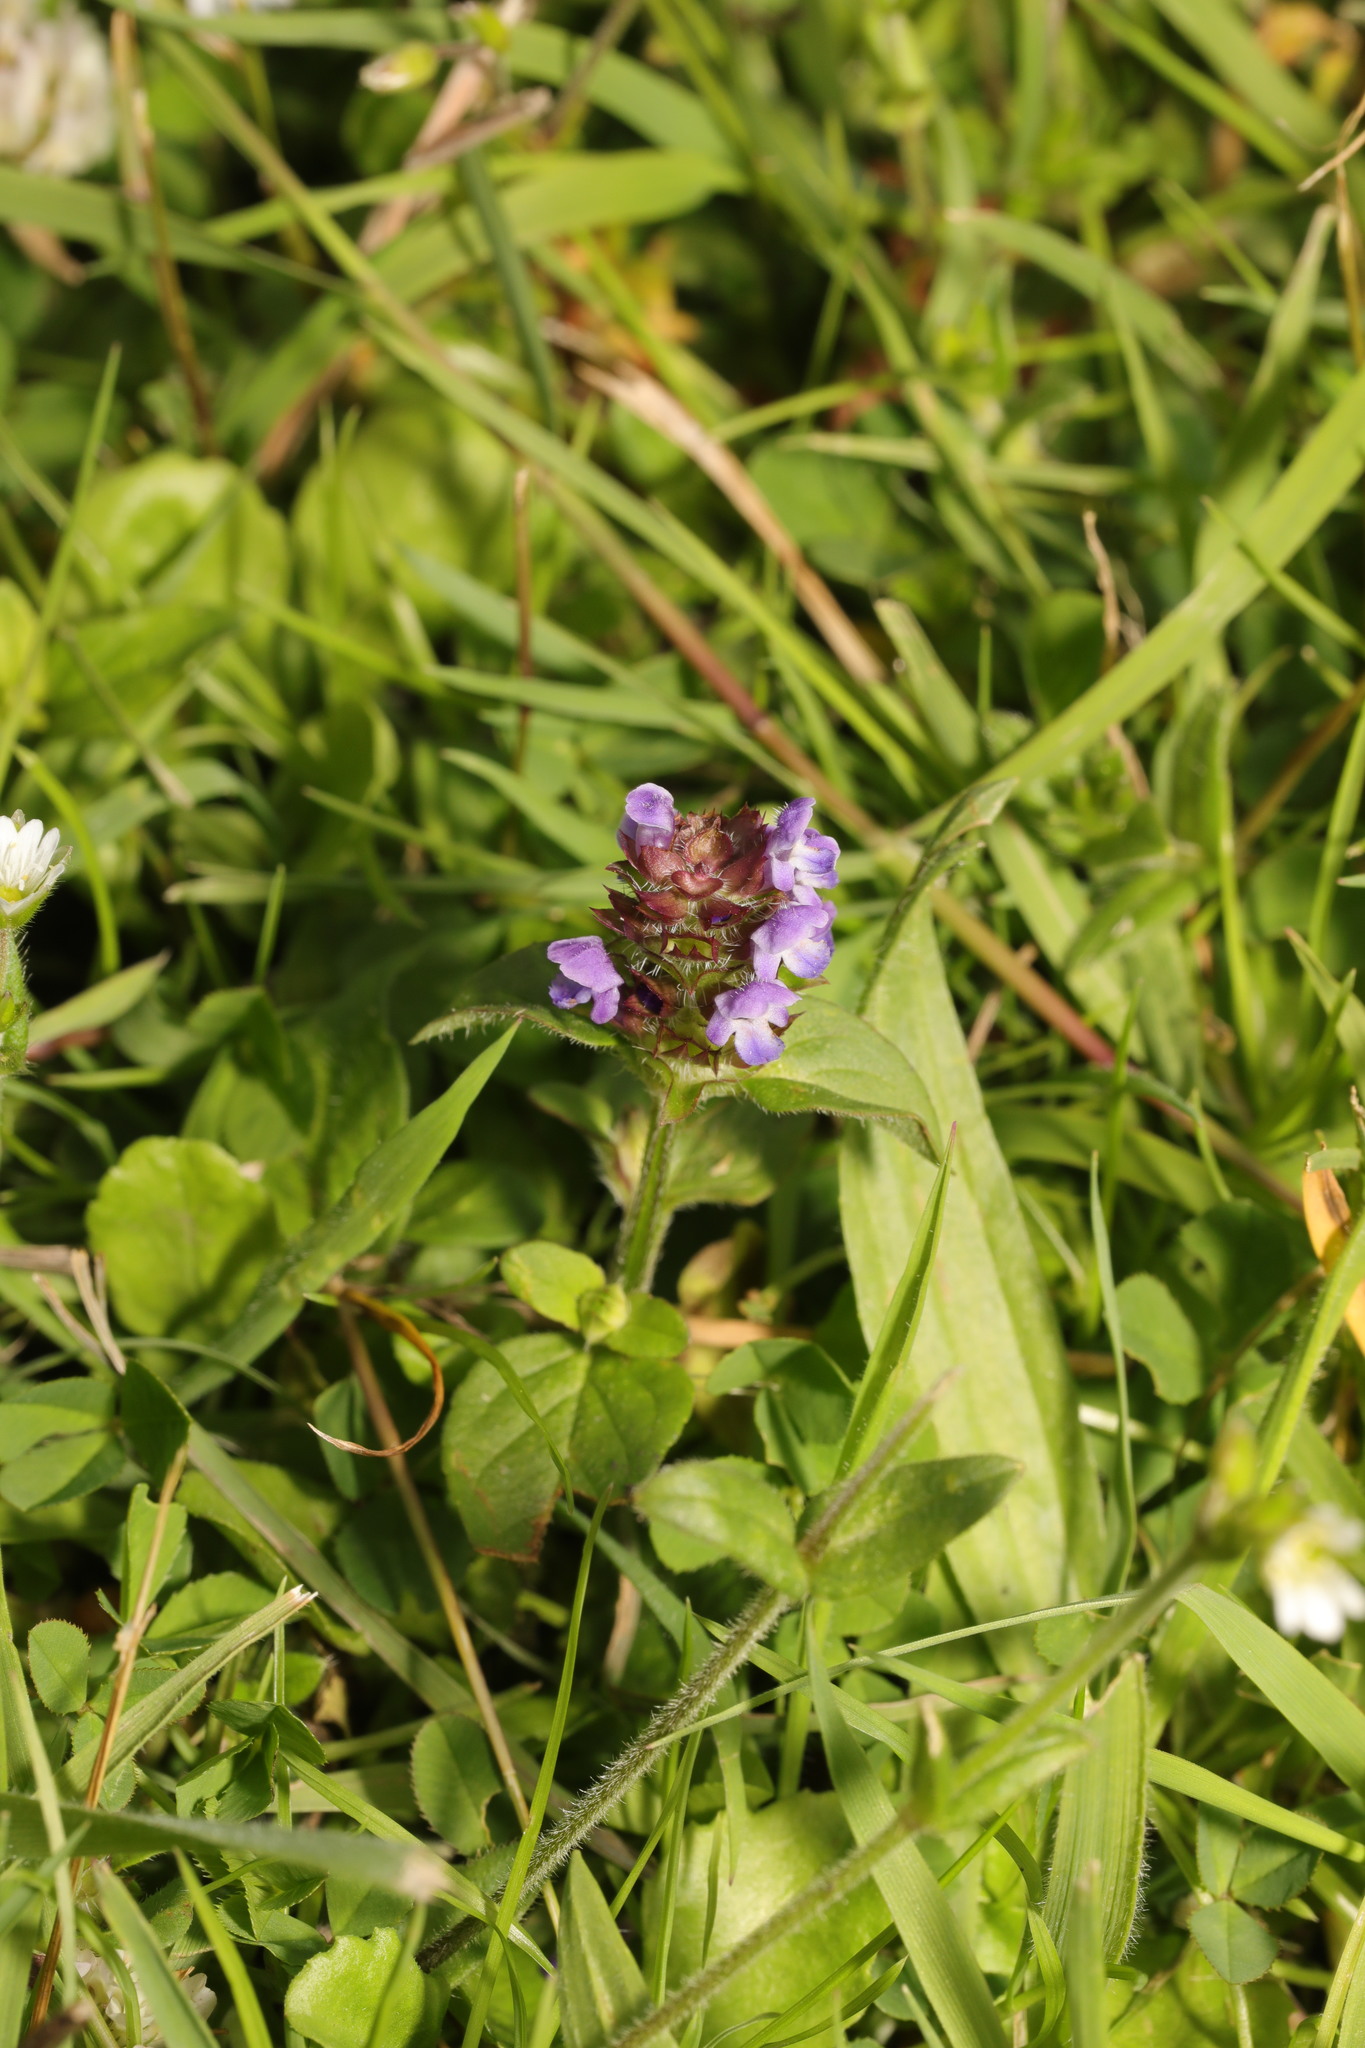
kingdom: Plantae
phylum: Tracheophyta
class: Magnoliopsida
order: Lamiales
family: Lamiaceae
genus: Prunella
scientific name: Prunella vulgaris
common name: Heal-all
